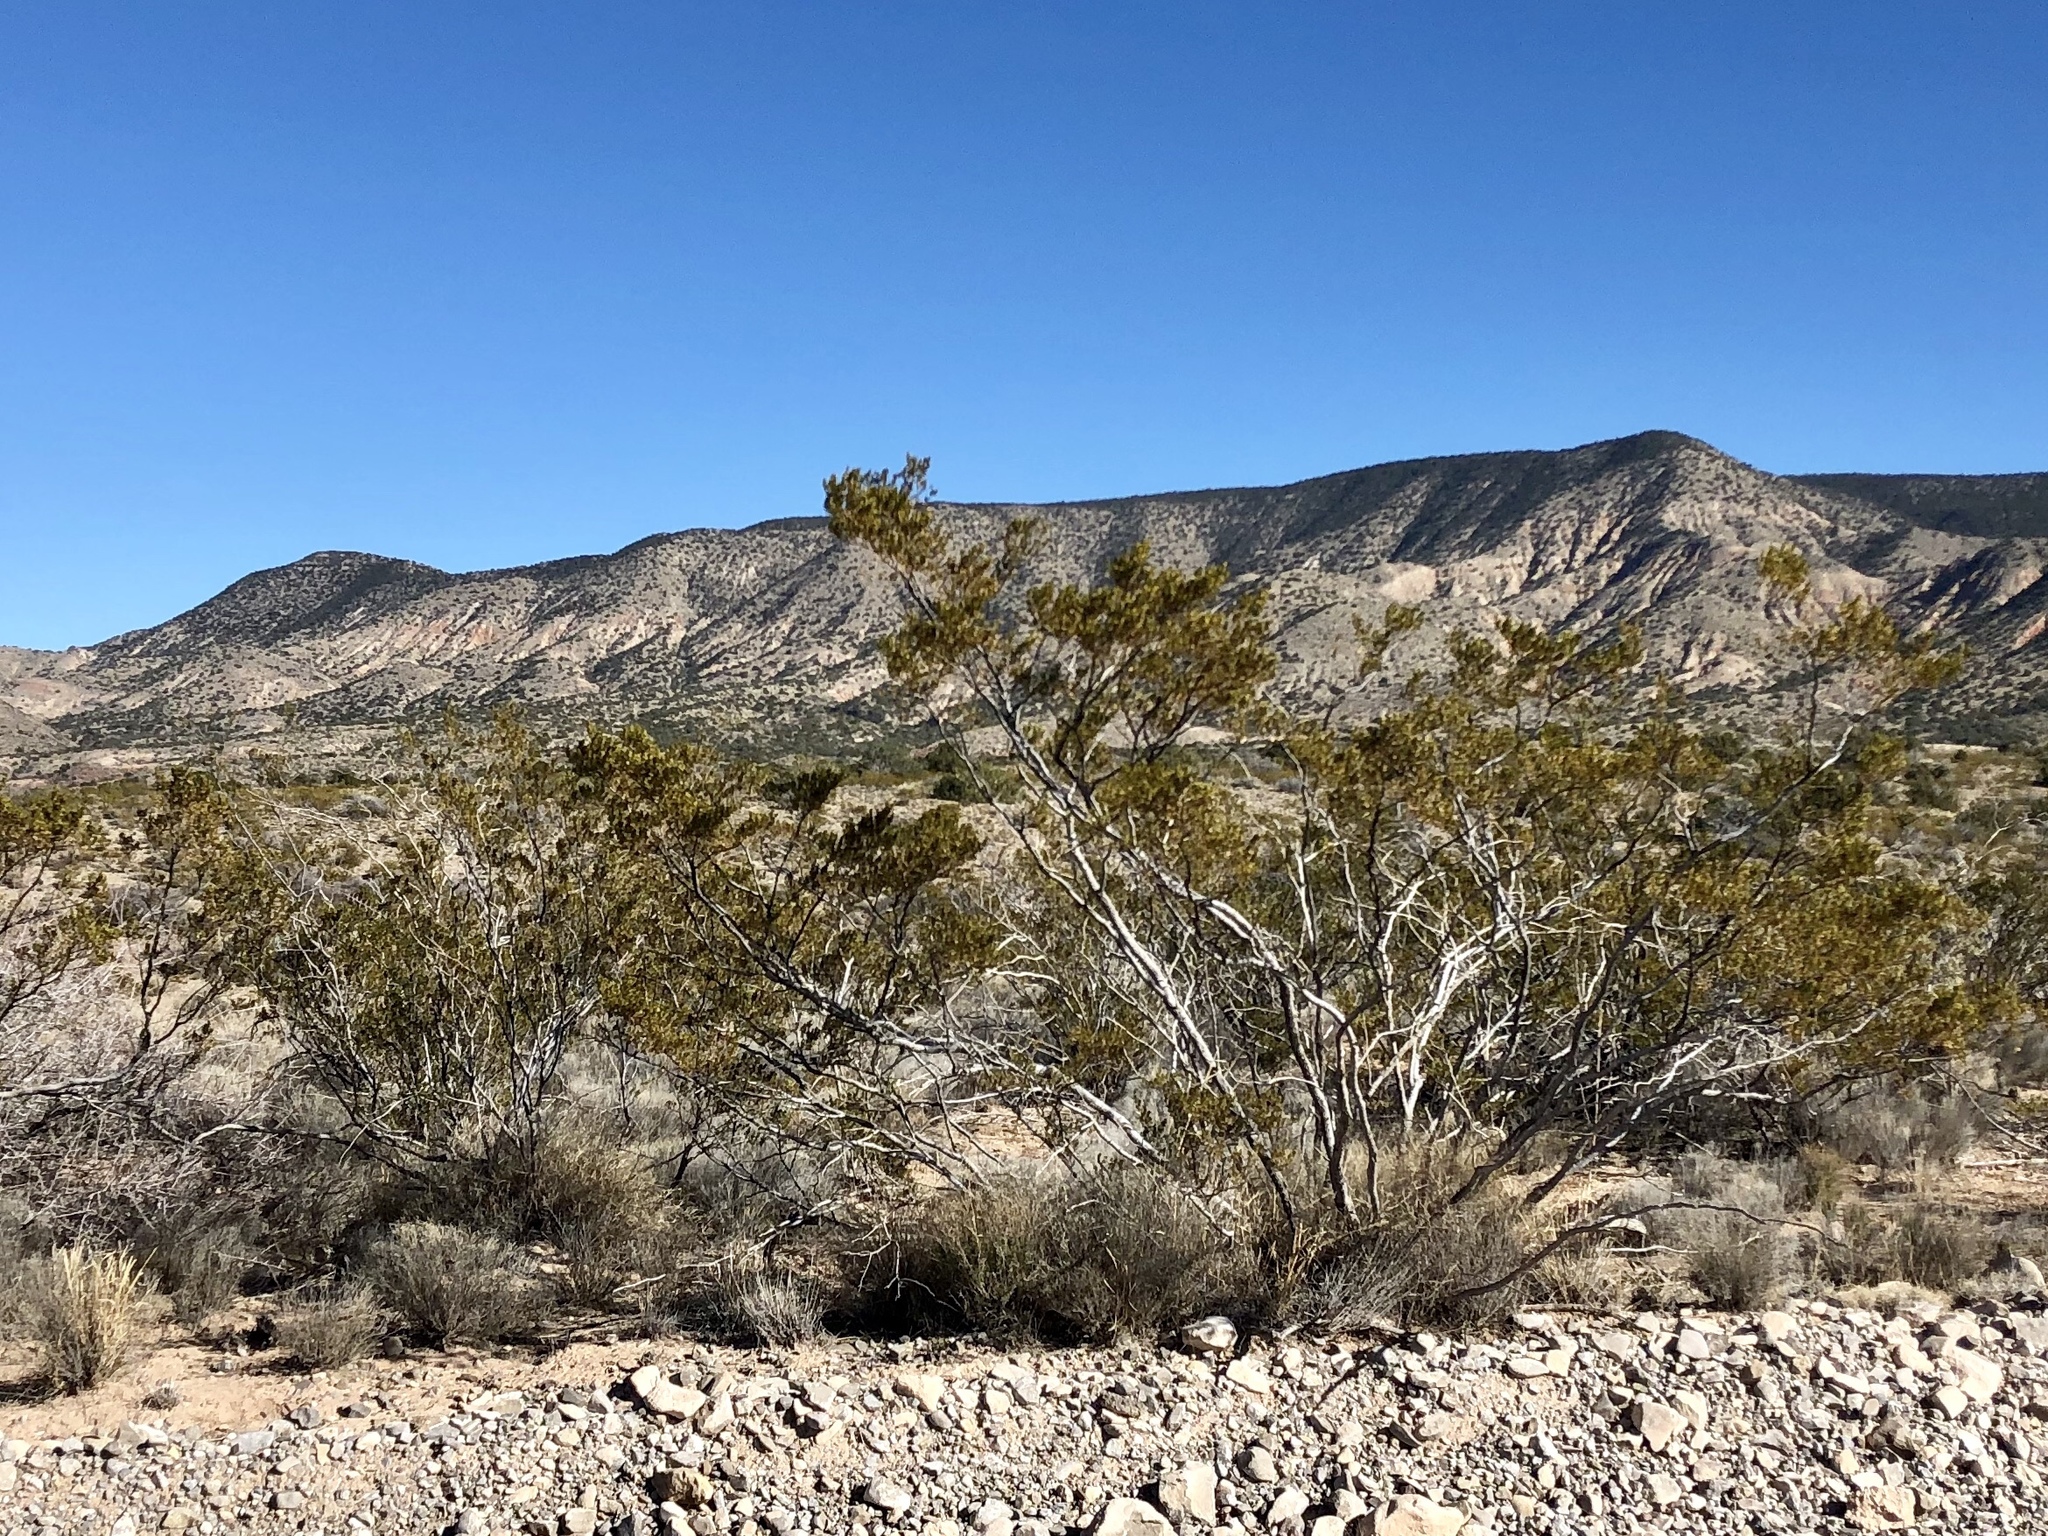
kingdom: Plantae
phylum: Tracheophyta
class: Magnoliopsida
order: Zygophyllales
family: Zygophyllaceae
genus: Larrea
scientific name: Larrea tridentata
